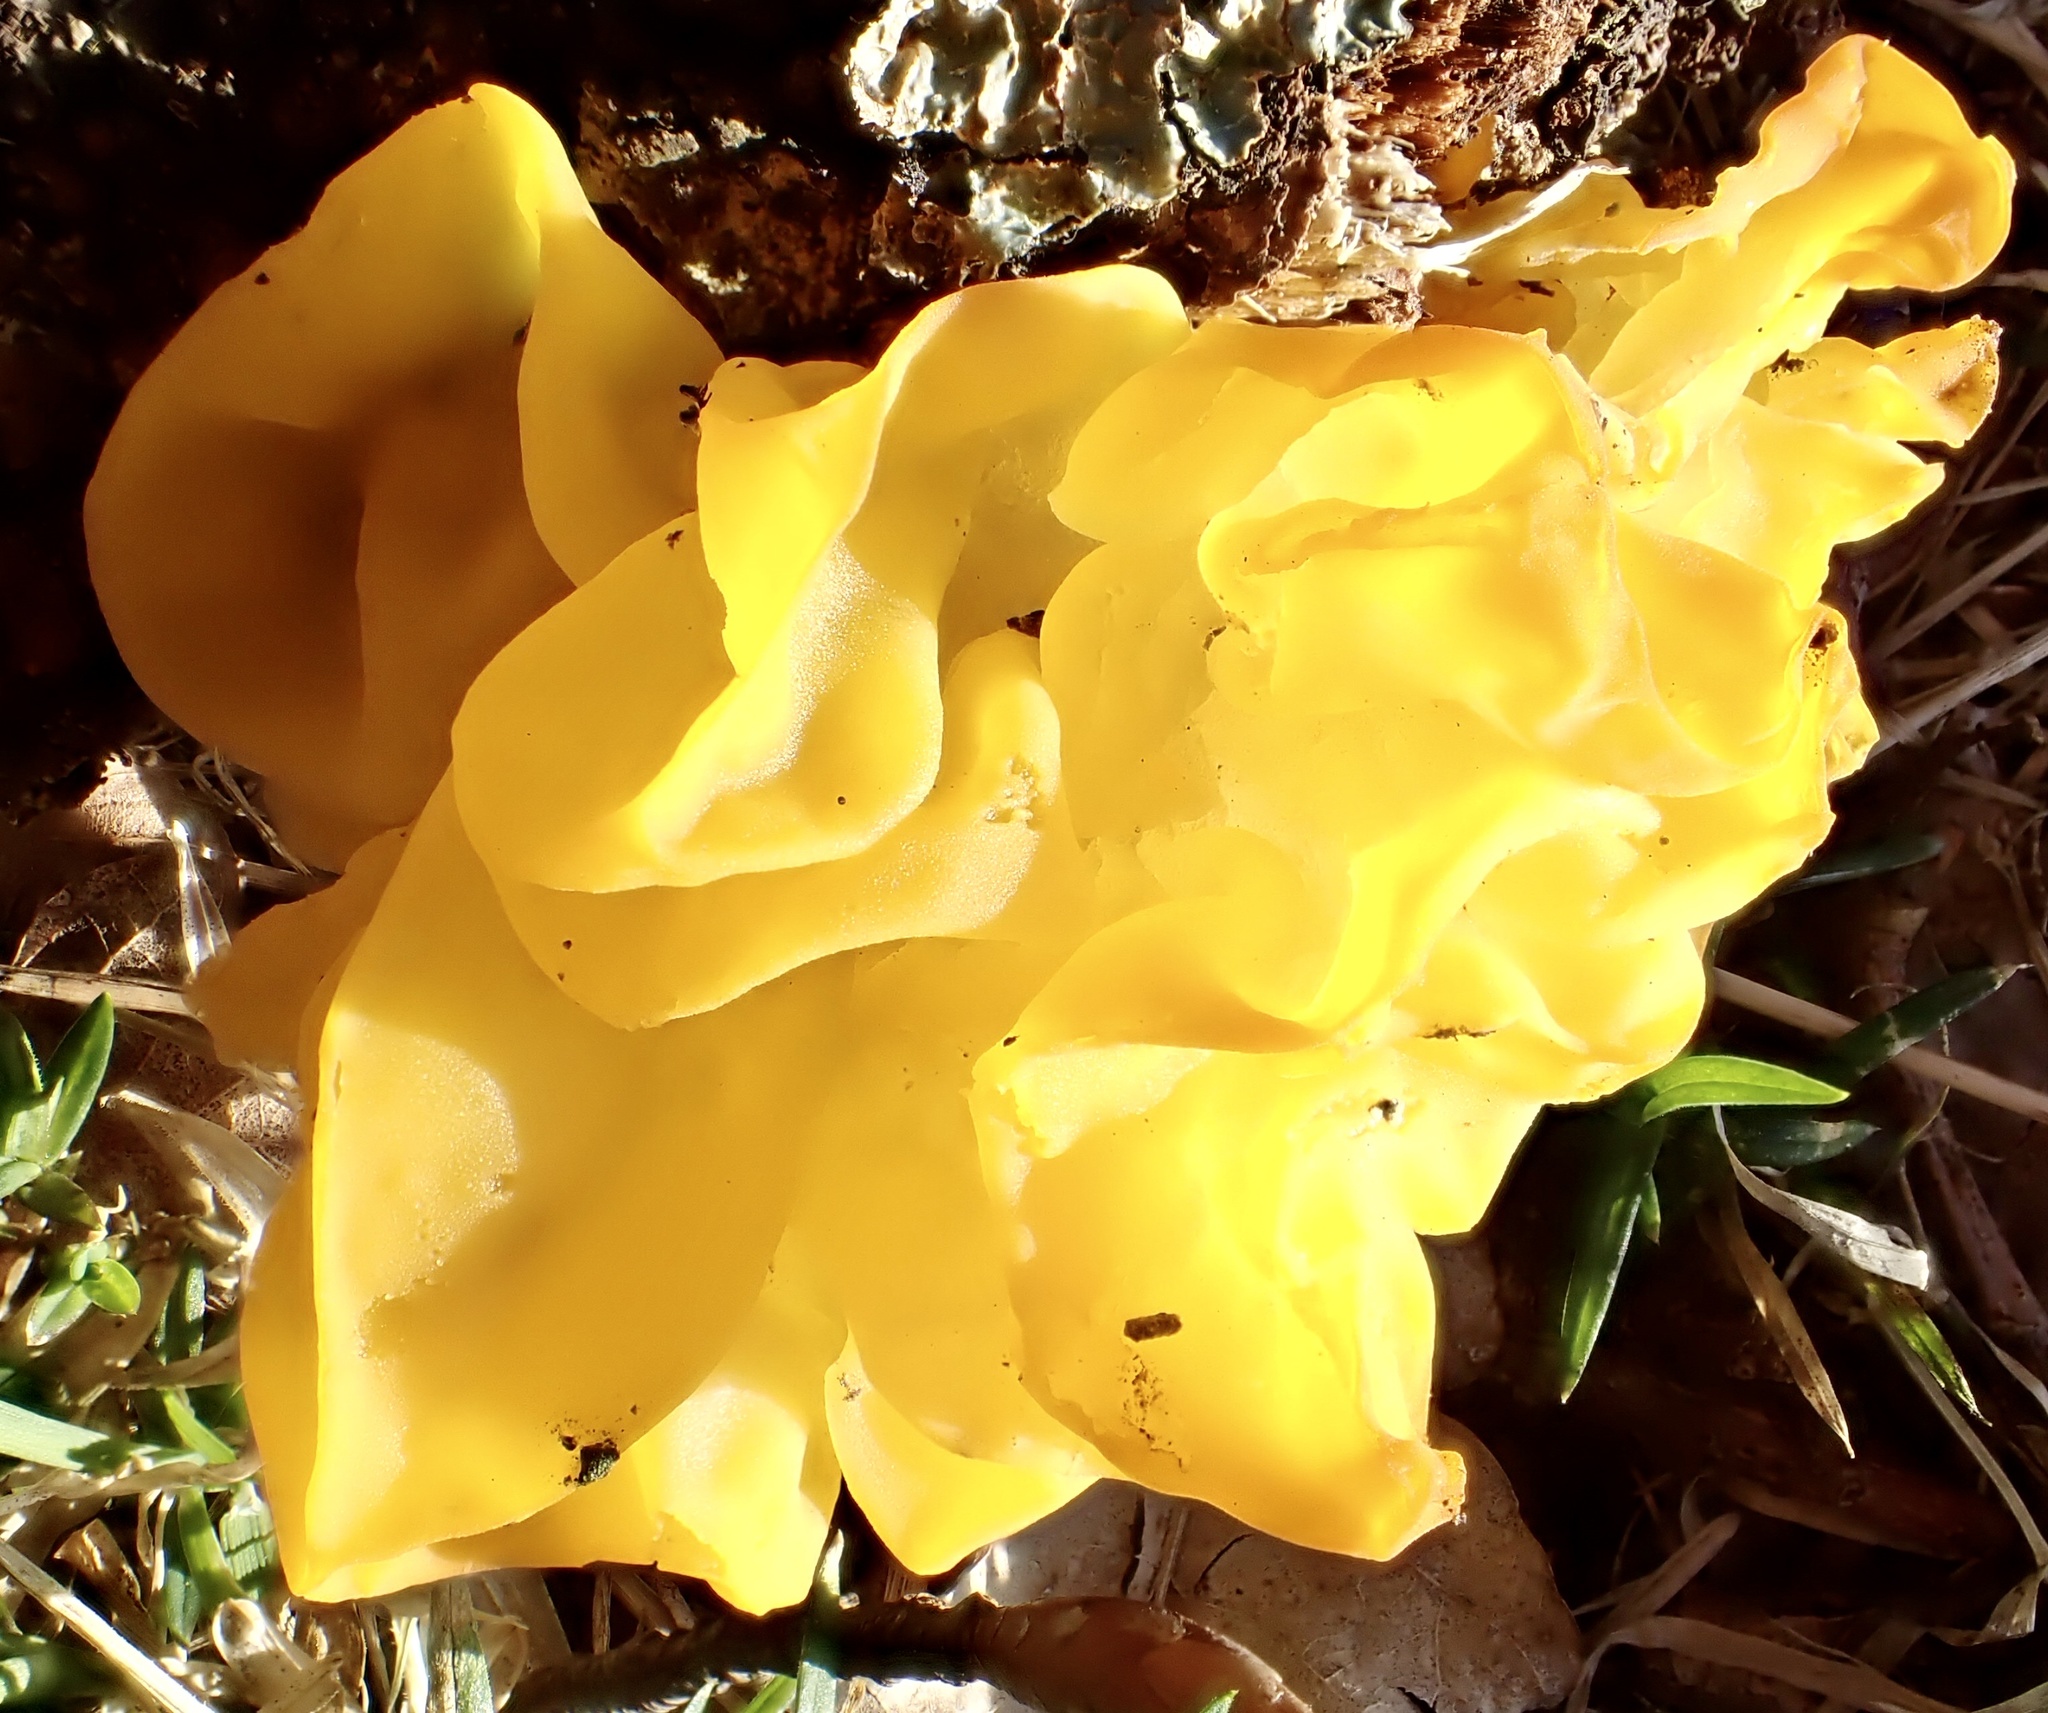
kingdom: Fungi
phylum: Basidiomycota
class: Tremellomycetes
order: Tremellales
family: Tremellaceae
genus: Tremella
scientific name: Tremella mesenterica
